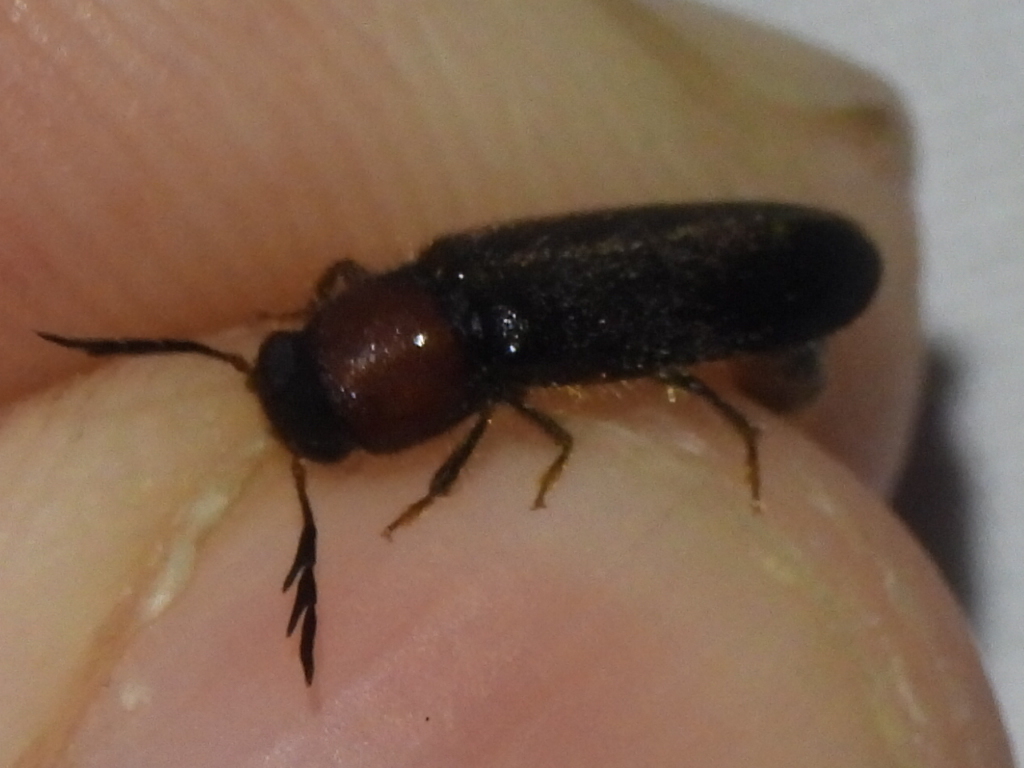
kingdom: Animalia
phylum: Arthropoda
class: Insecta
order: Coleoptera
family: Cleridae
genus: Neorthopleura
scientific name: Neorthopleura texana
